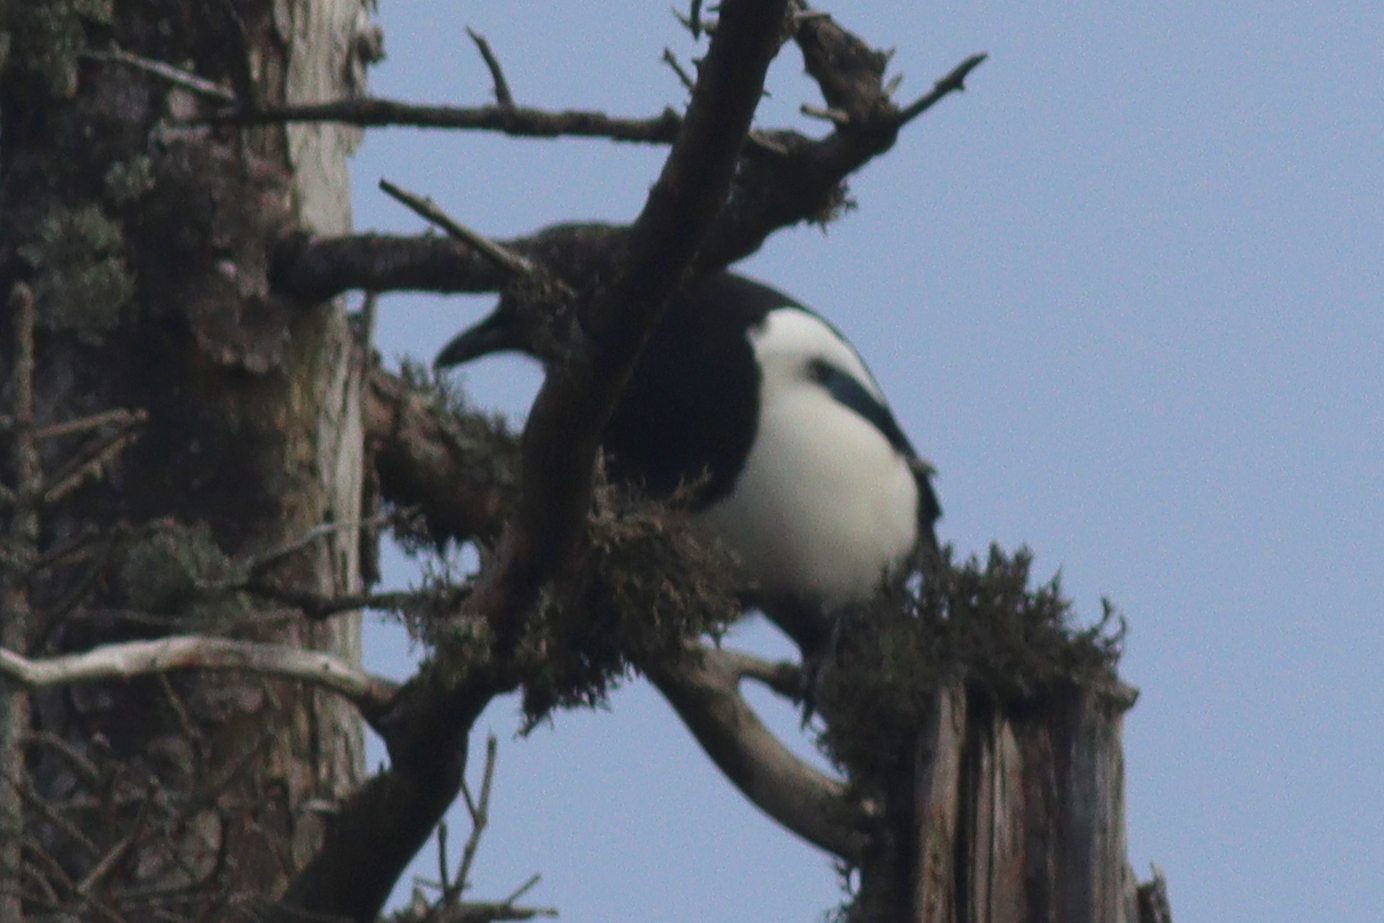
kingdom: Animalia
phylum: Chordata
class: Aves
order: Passeriformes
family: Corvidae
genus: Pica
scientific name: Pica pica
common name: Eurasian magpie
